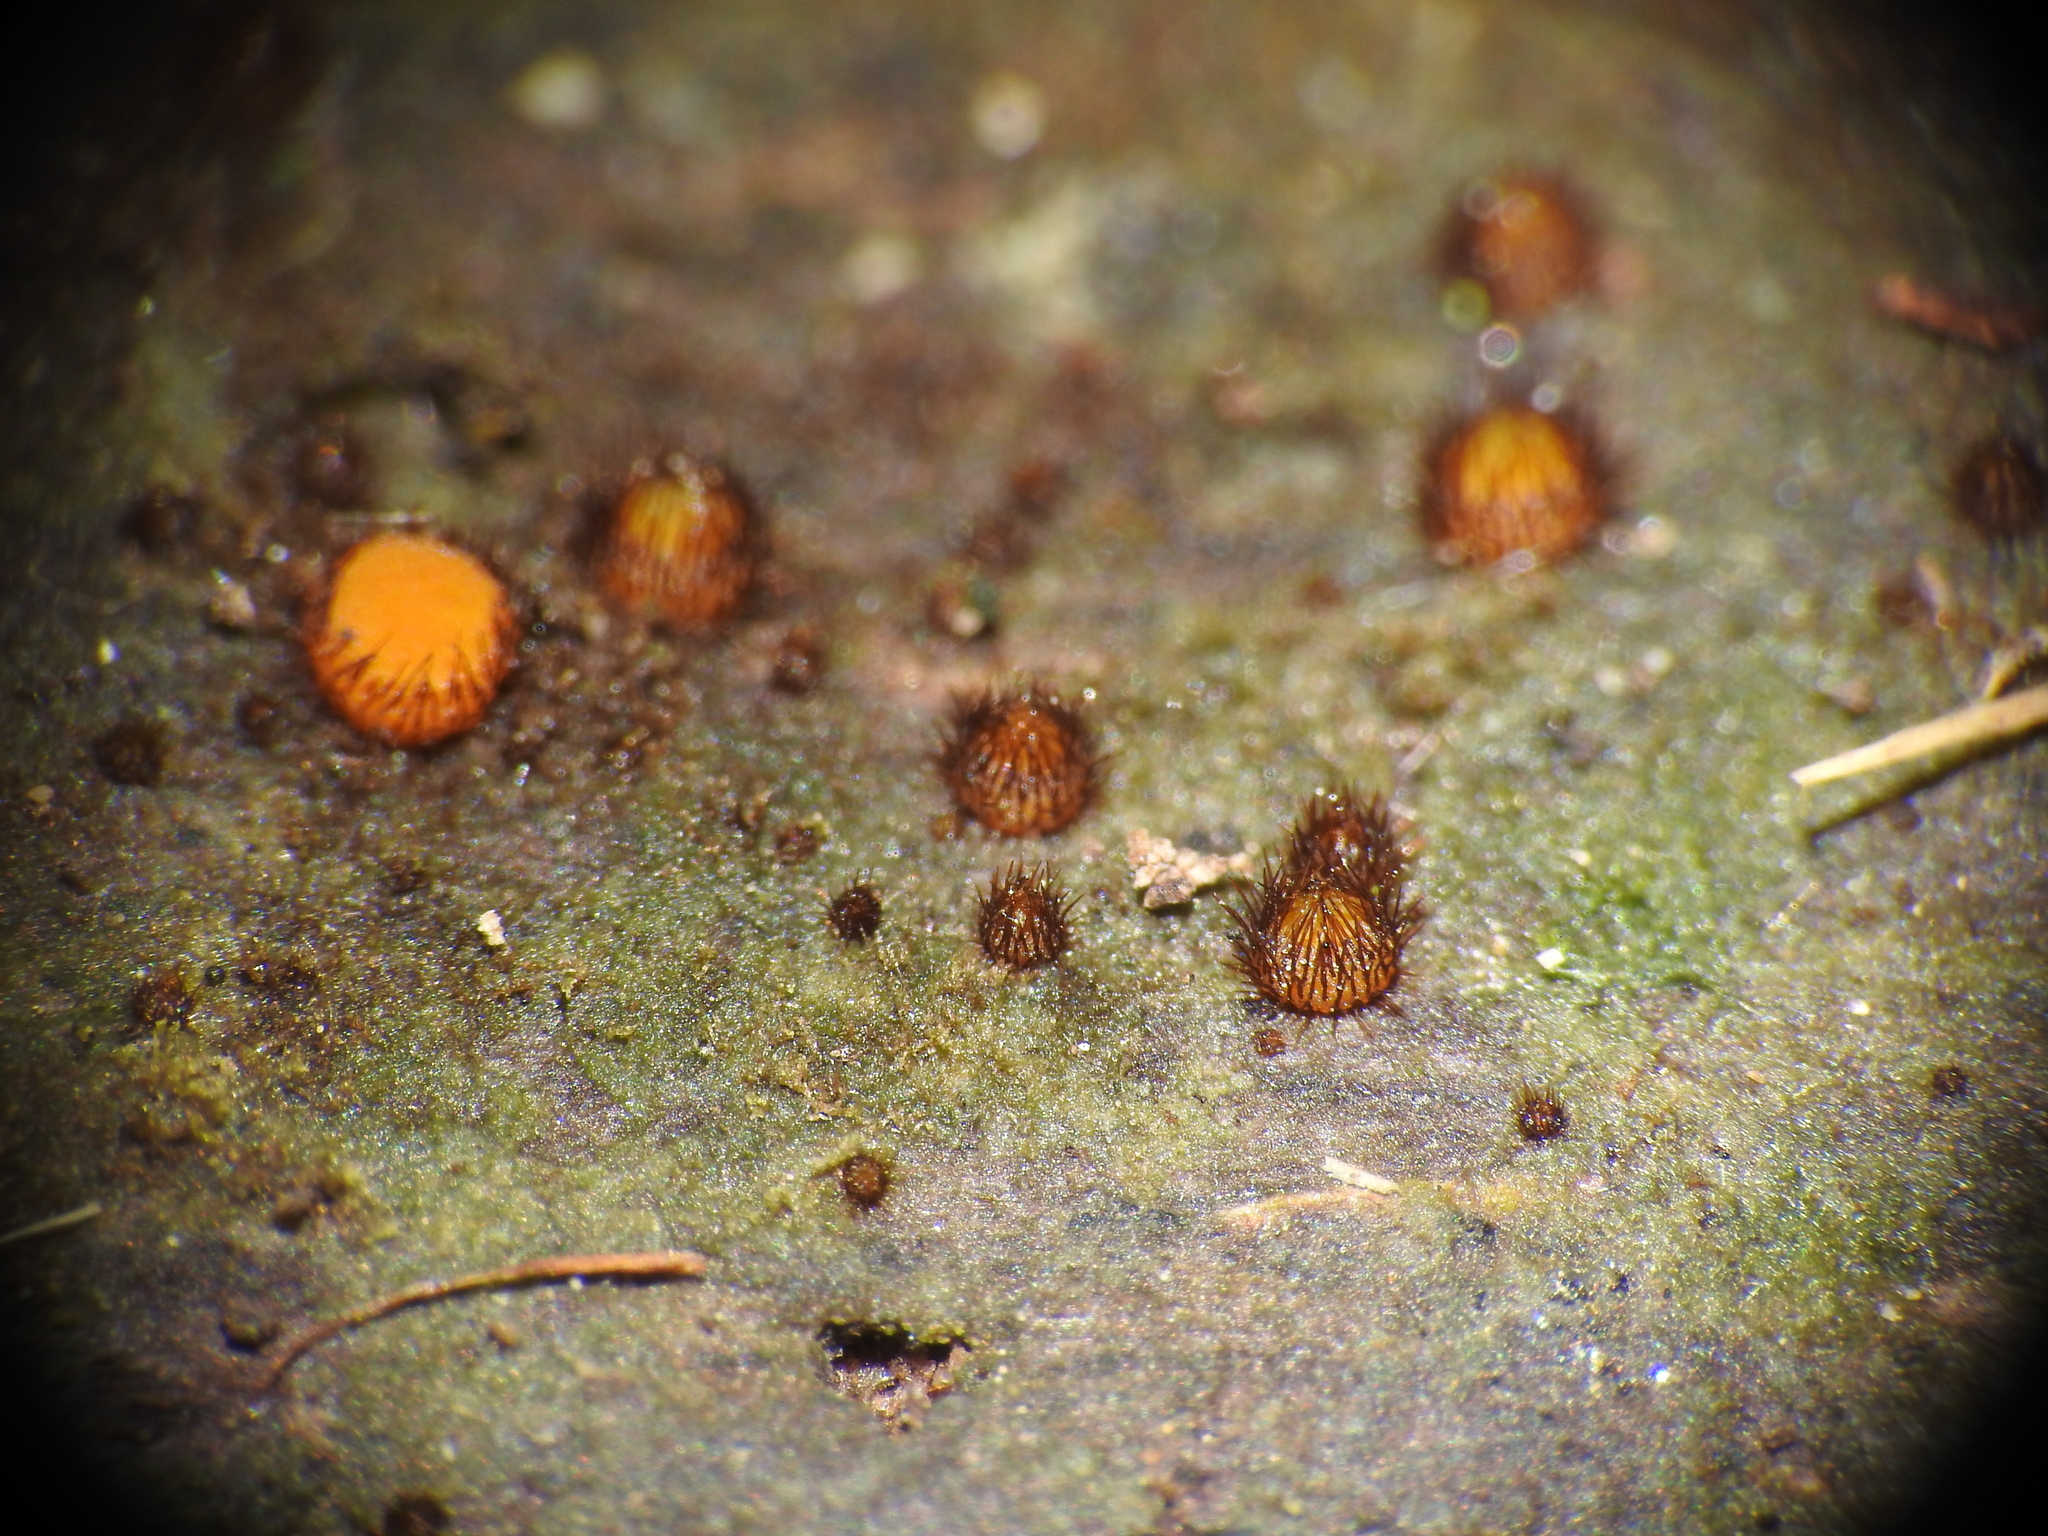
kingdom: Fungi
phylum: Ascomycota
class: Pezizomycetes
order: Pezizales
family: Pyronemataceae
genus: Scutellinia
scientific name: Scutellinia setosa
